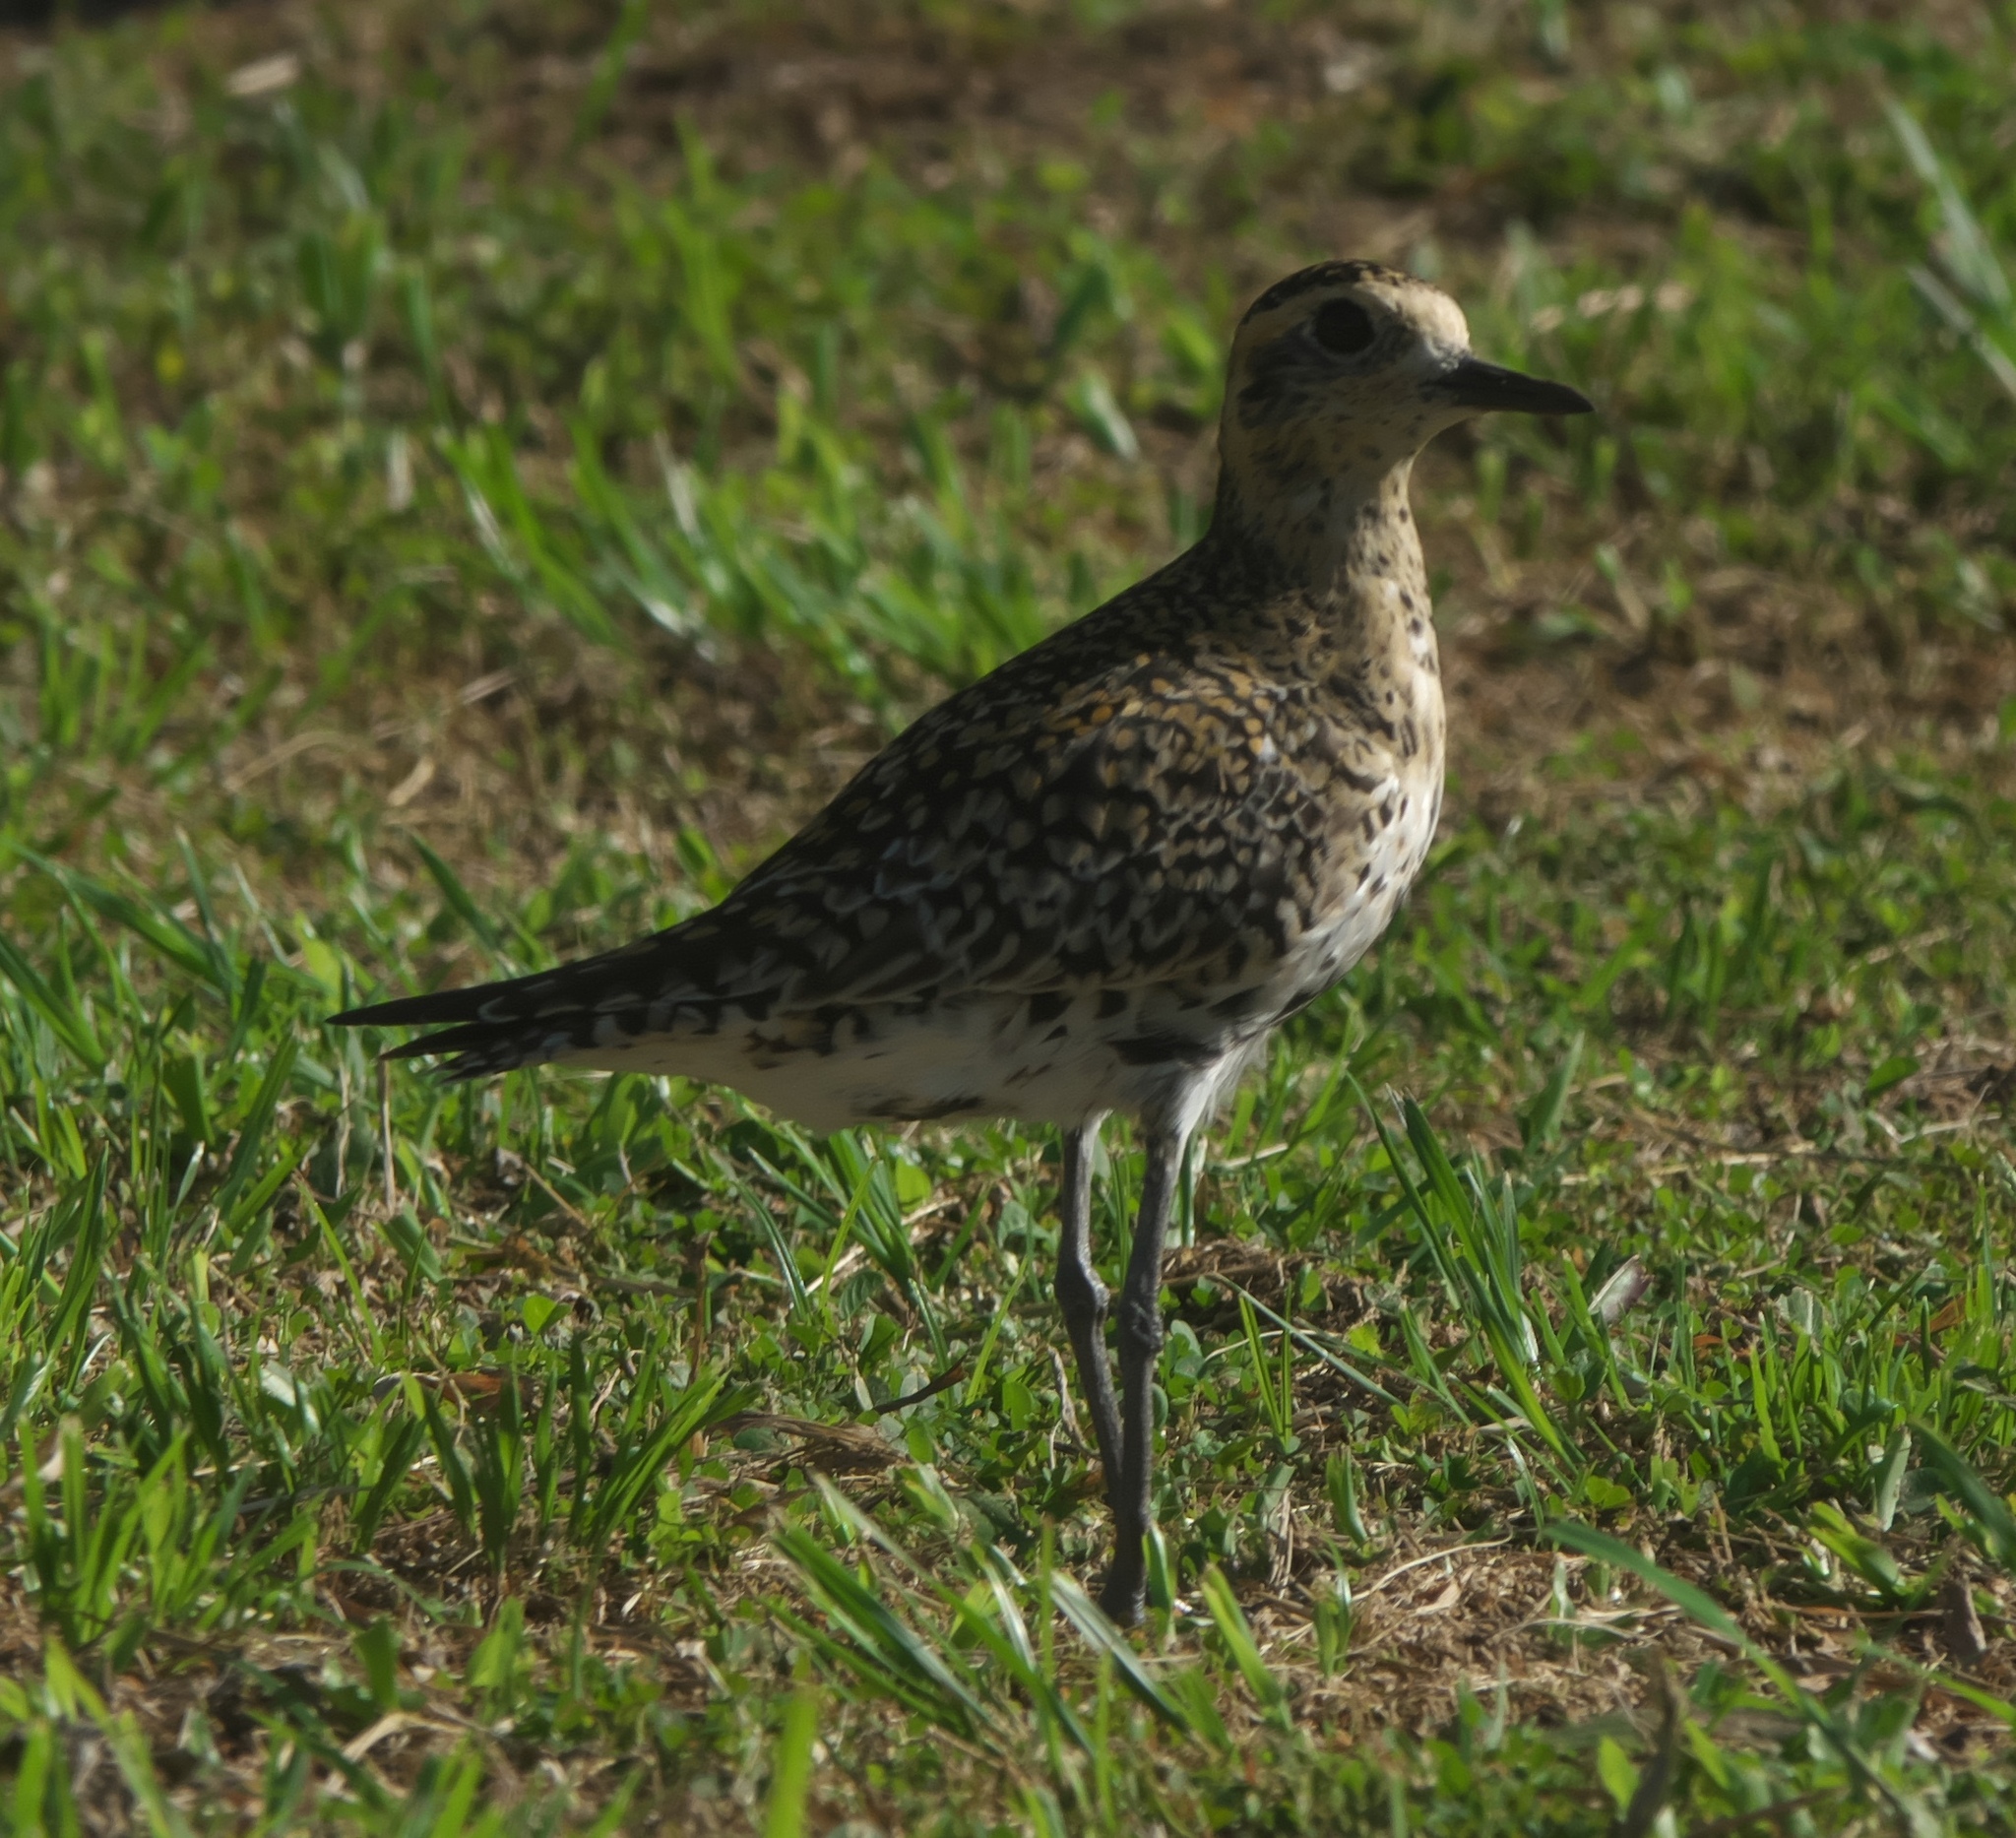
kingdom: Animalia
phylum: Chordata
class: Aves
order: Charadriiformes
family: Charadriidae
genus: Pluvialis
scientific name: Pluvialis fulva
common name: Pacific golden plover
